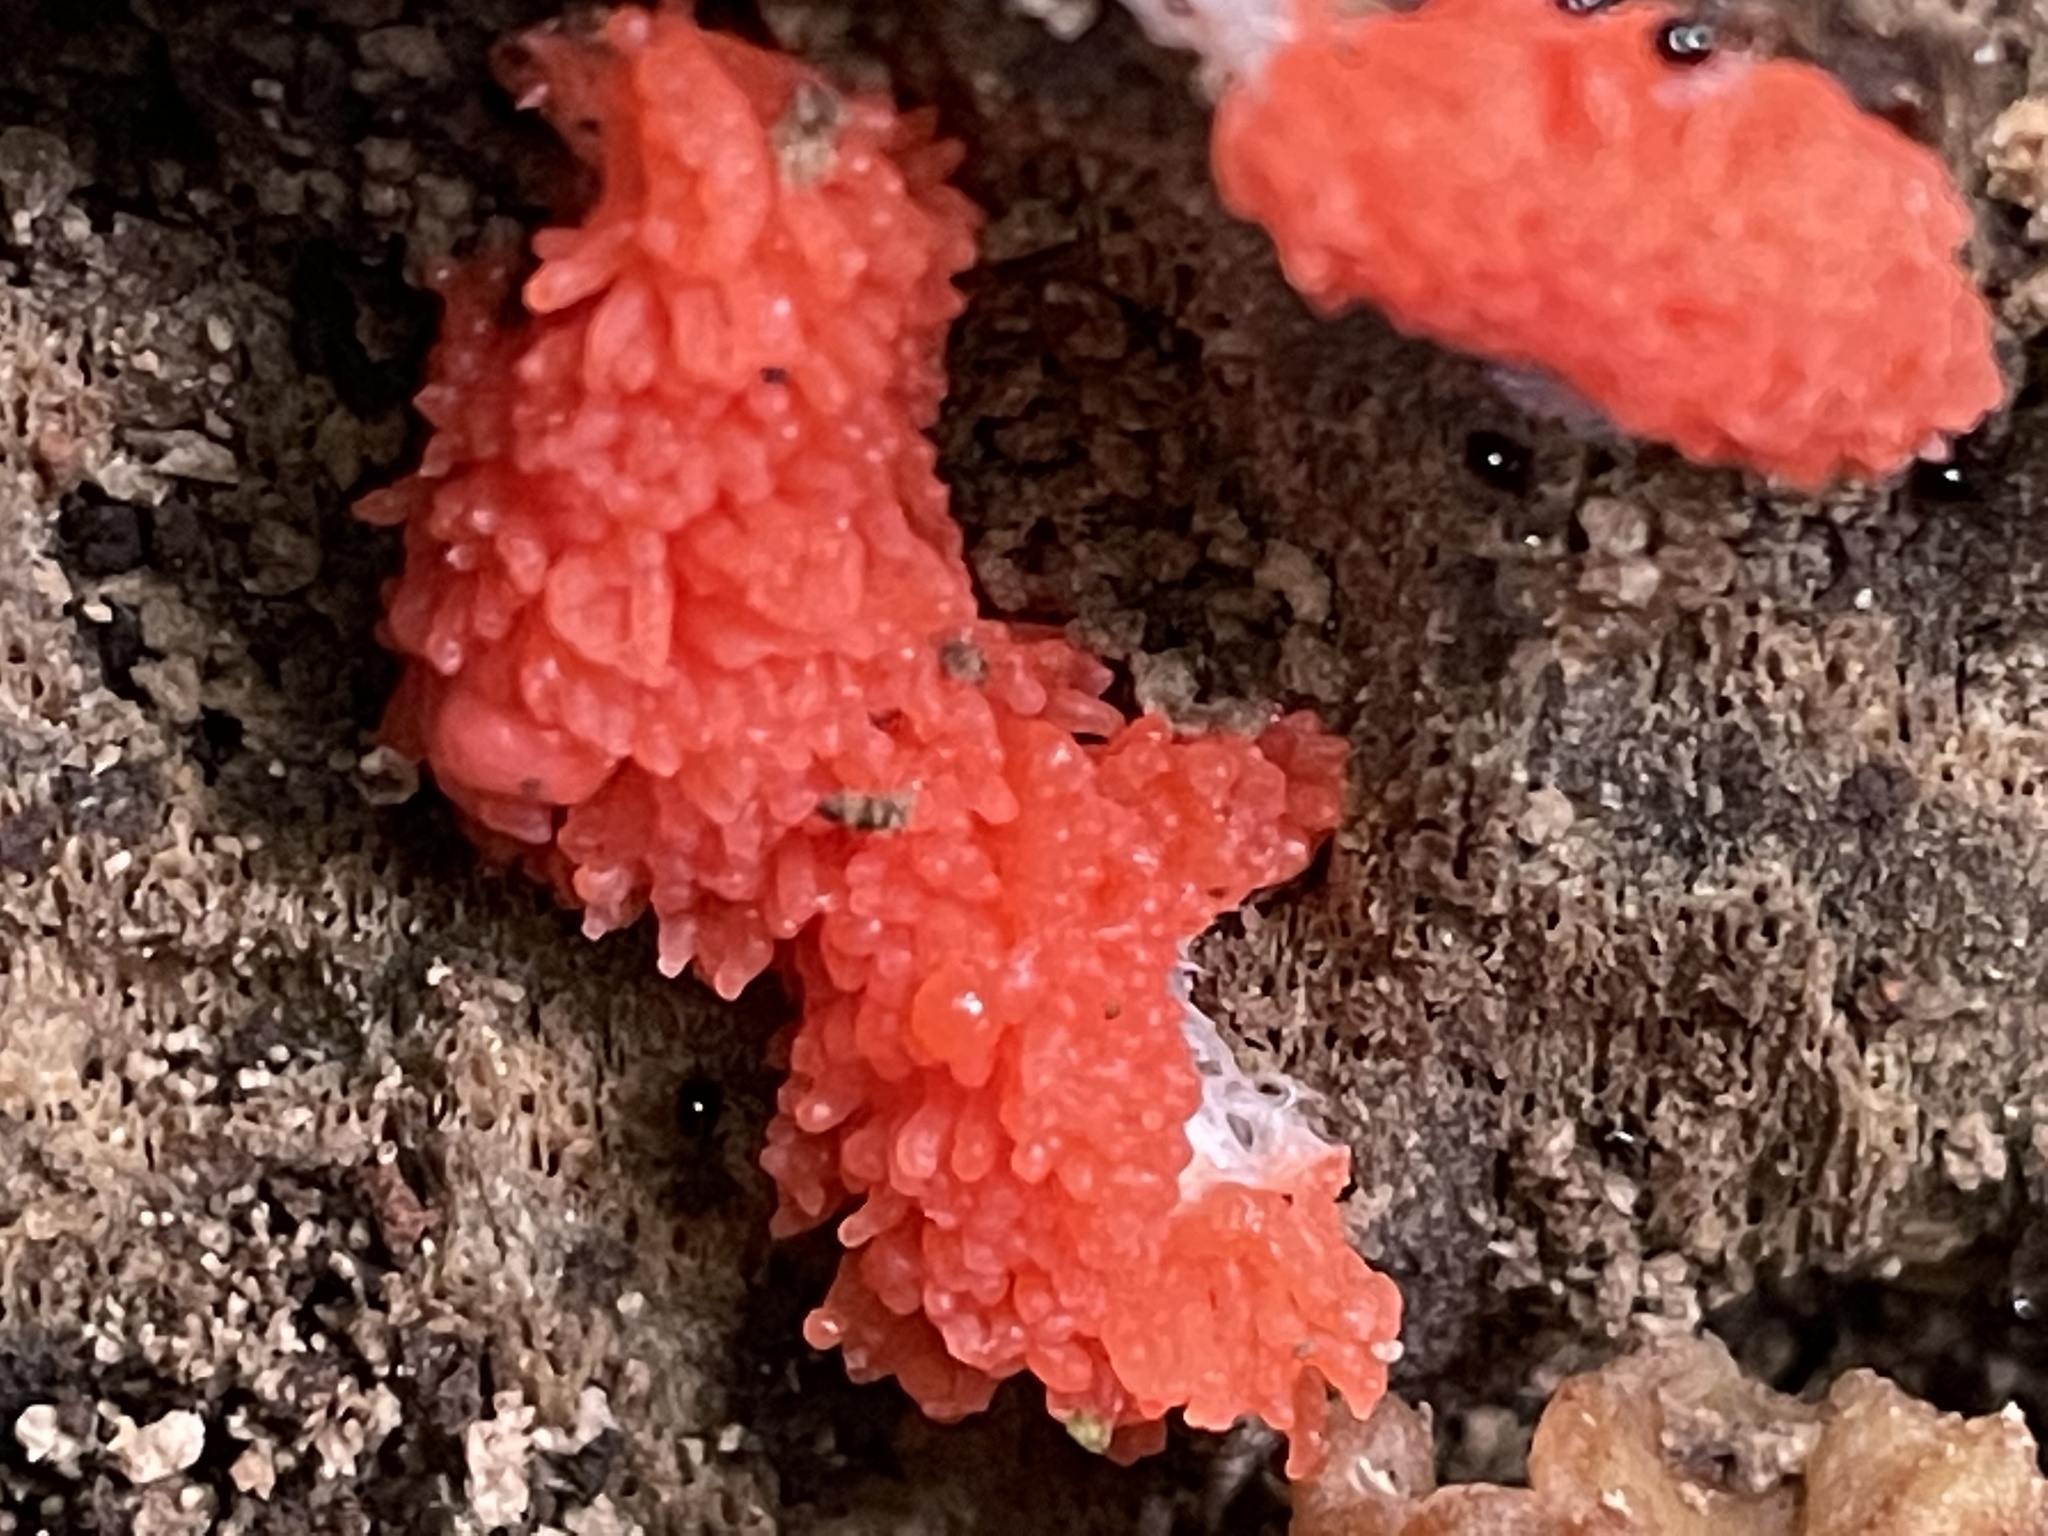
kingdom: Protozoa
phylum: Mycetozoa
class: Myxomycetes
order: Cribrariales
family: Tubiferaceae
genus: Tubifera
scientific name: Tubifera ferruginosa
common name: Red raspberry slime mold
